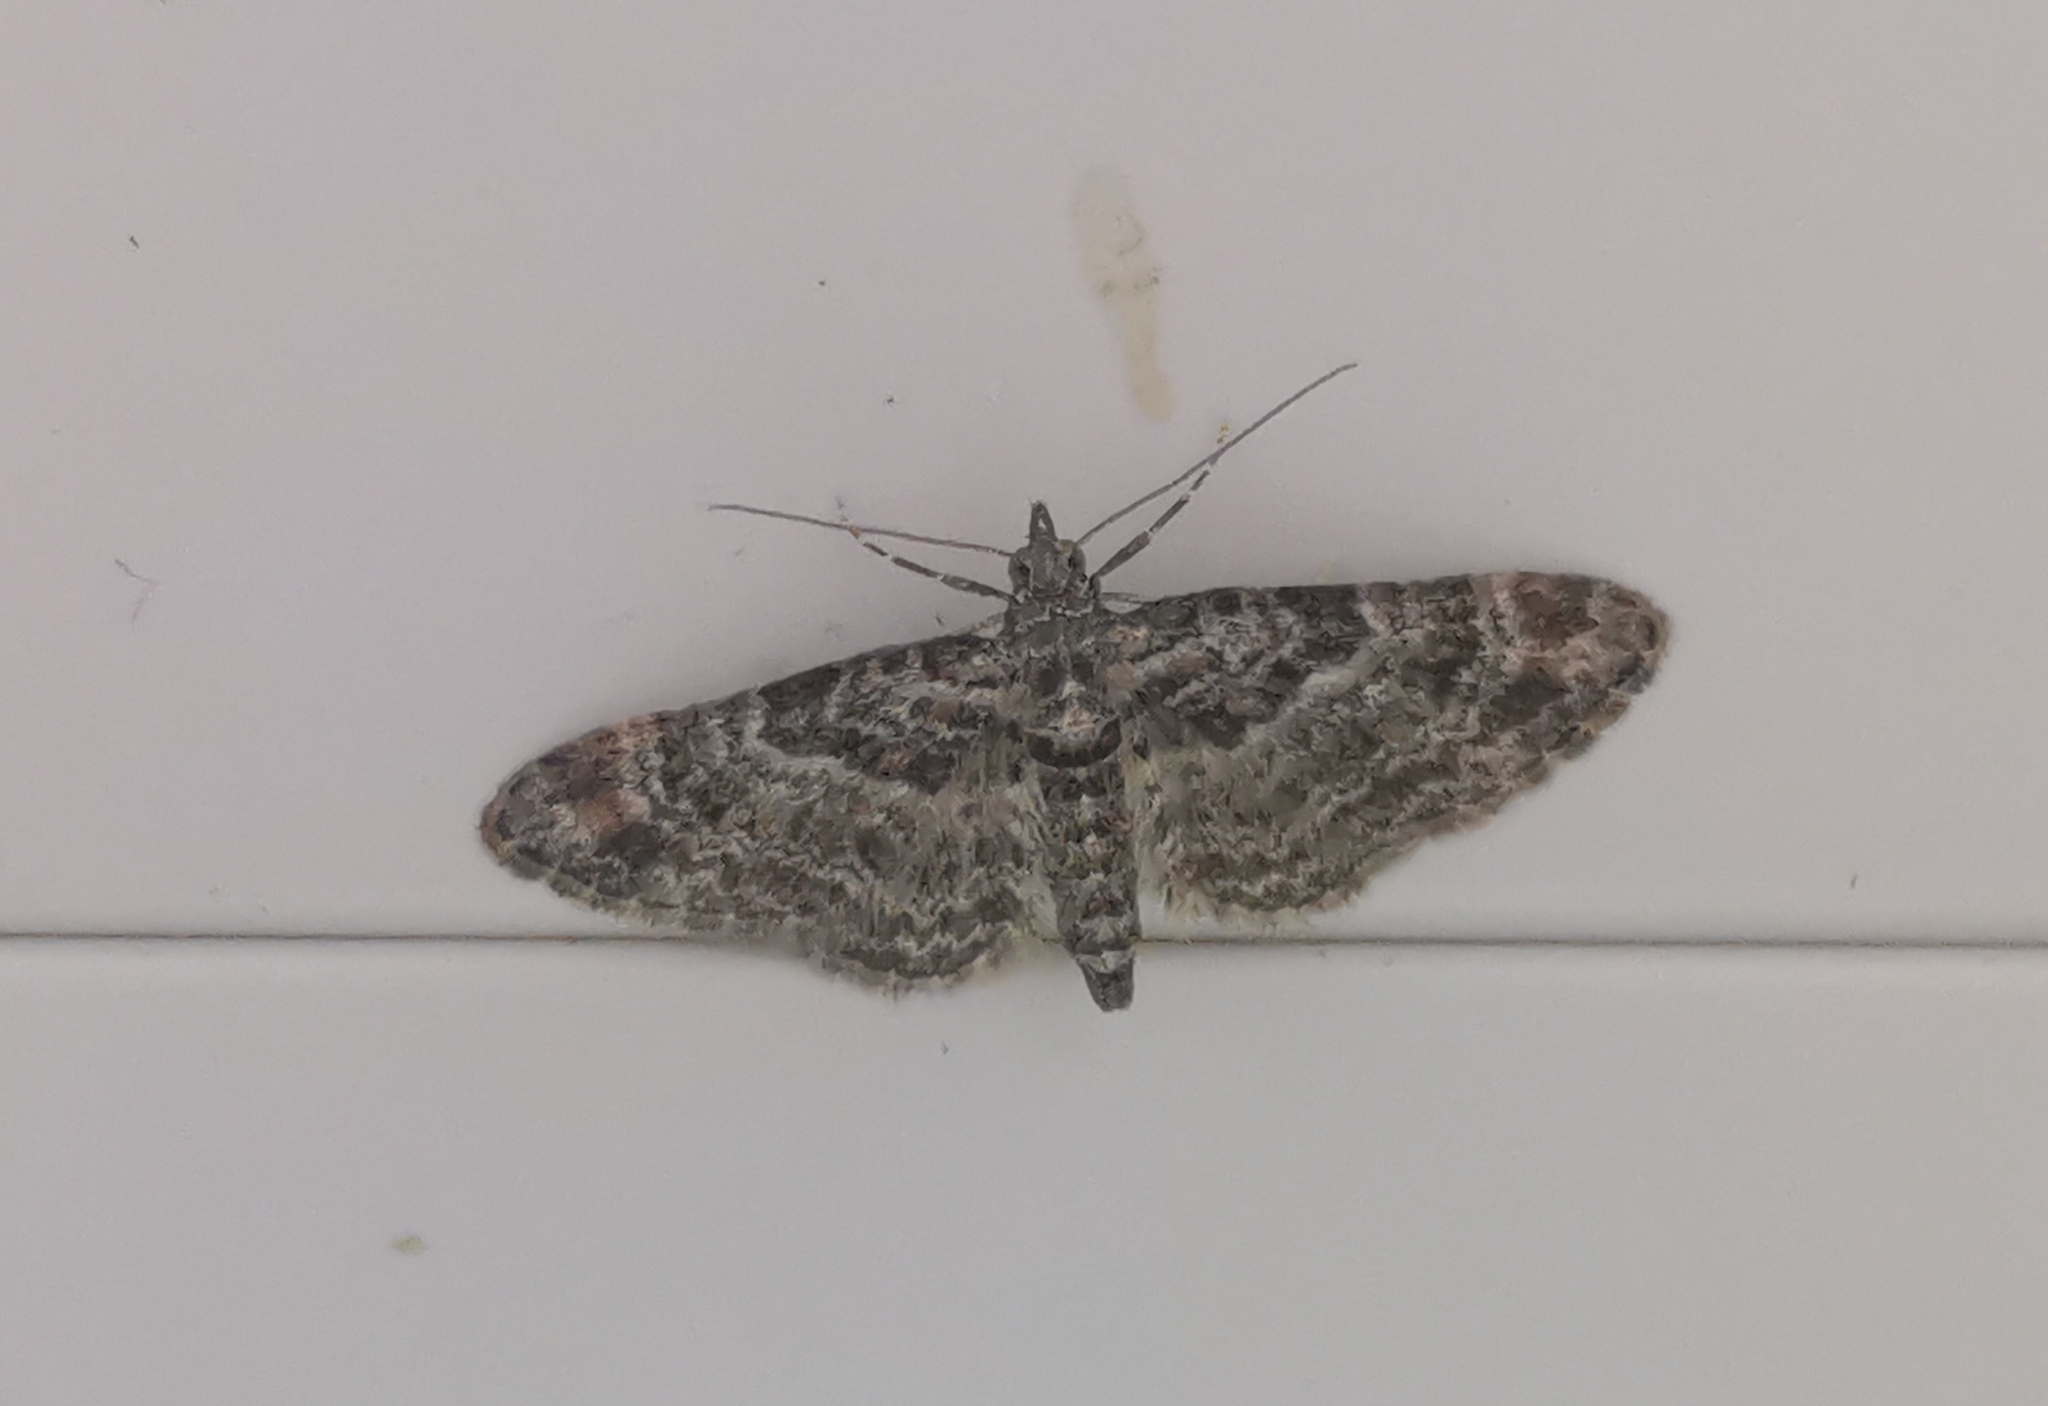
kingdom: Animalia
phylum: Arthropoda
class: Insecta
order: Lepidoptera
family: Geometridae
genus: Gymnoscelis
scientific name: Gymnoscelis rufifasciata
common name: Double-striped pug
